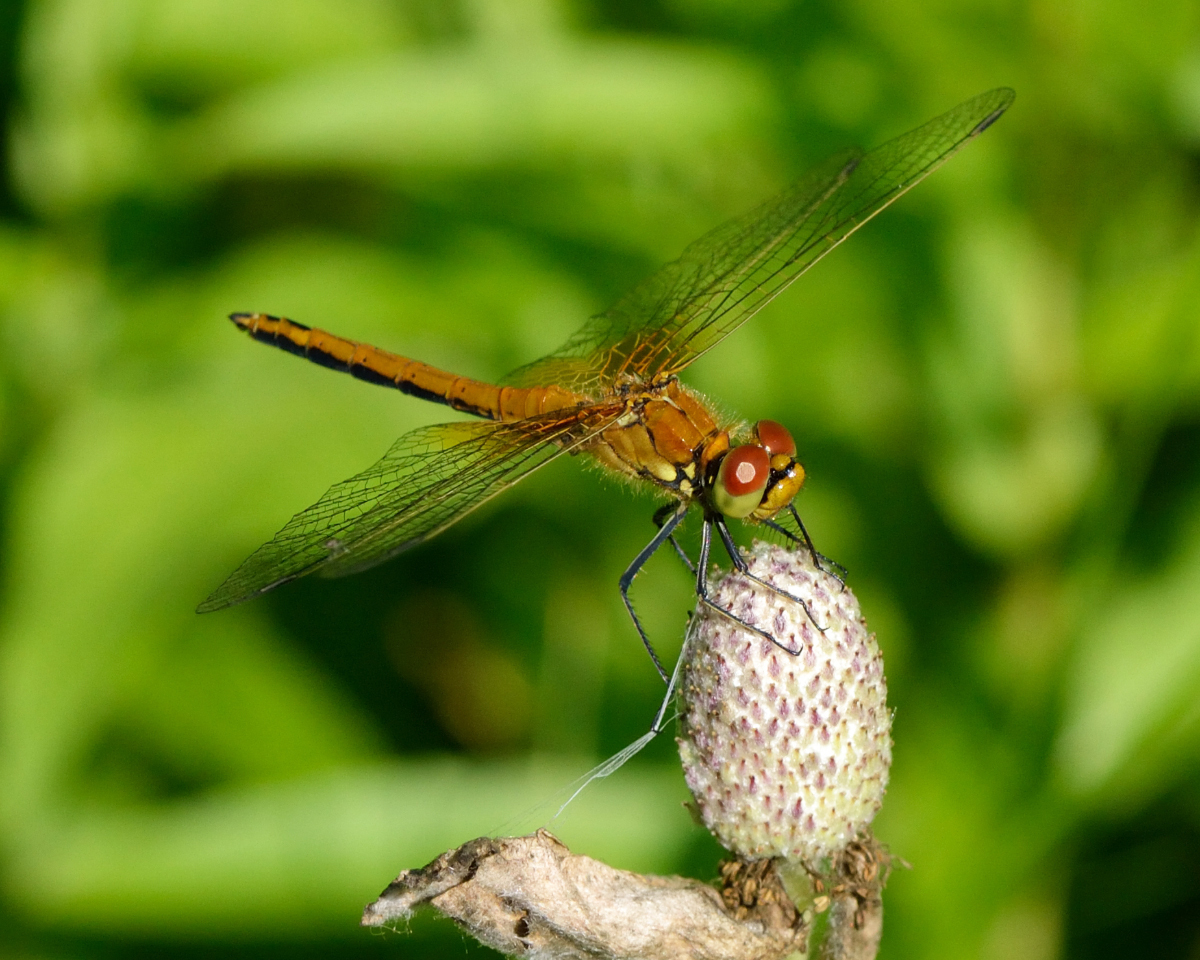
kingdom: Animalia
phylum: Arthropoda
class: Insecta
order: Odonata
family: Libellulidae
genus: Sympetrum
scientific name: Sympetrum flaveolum
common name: Yellow-winged darter
